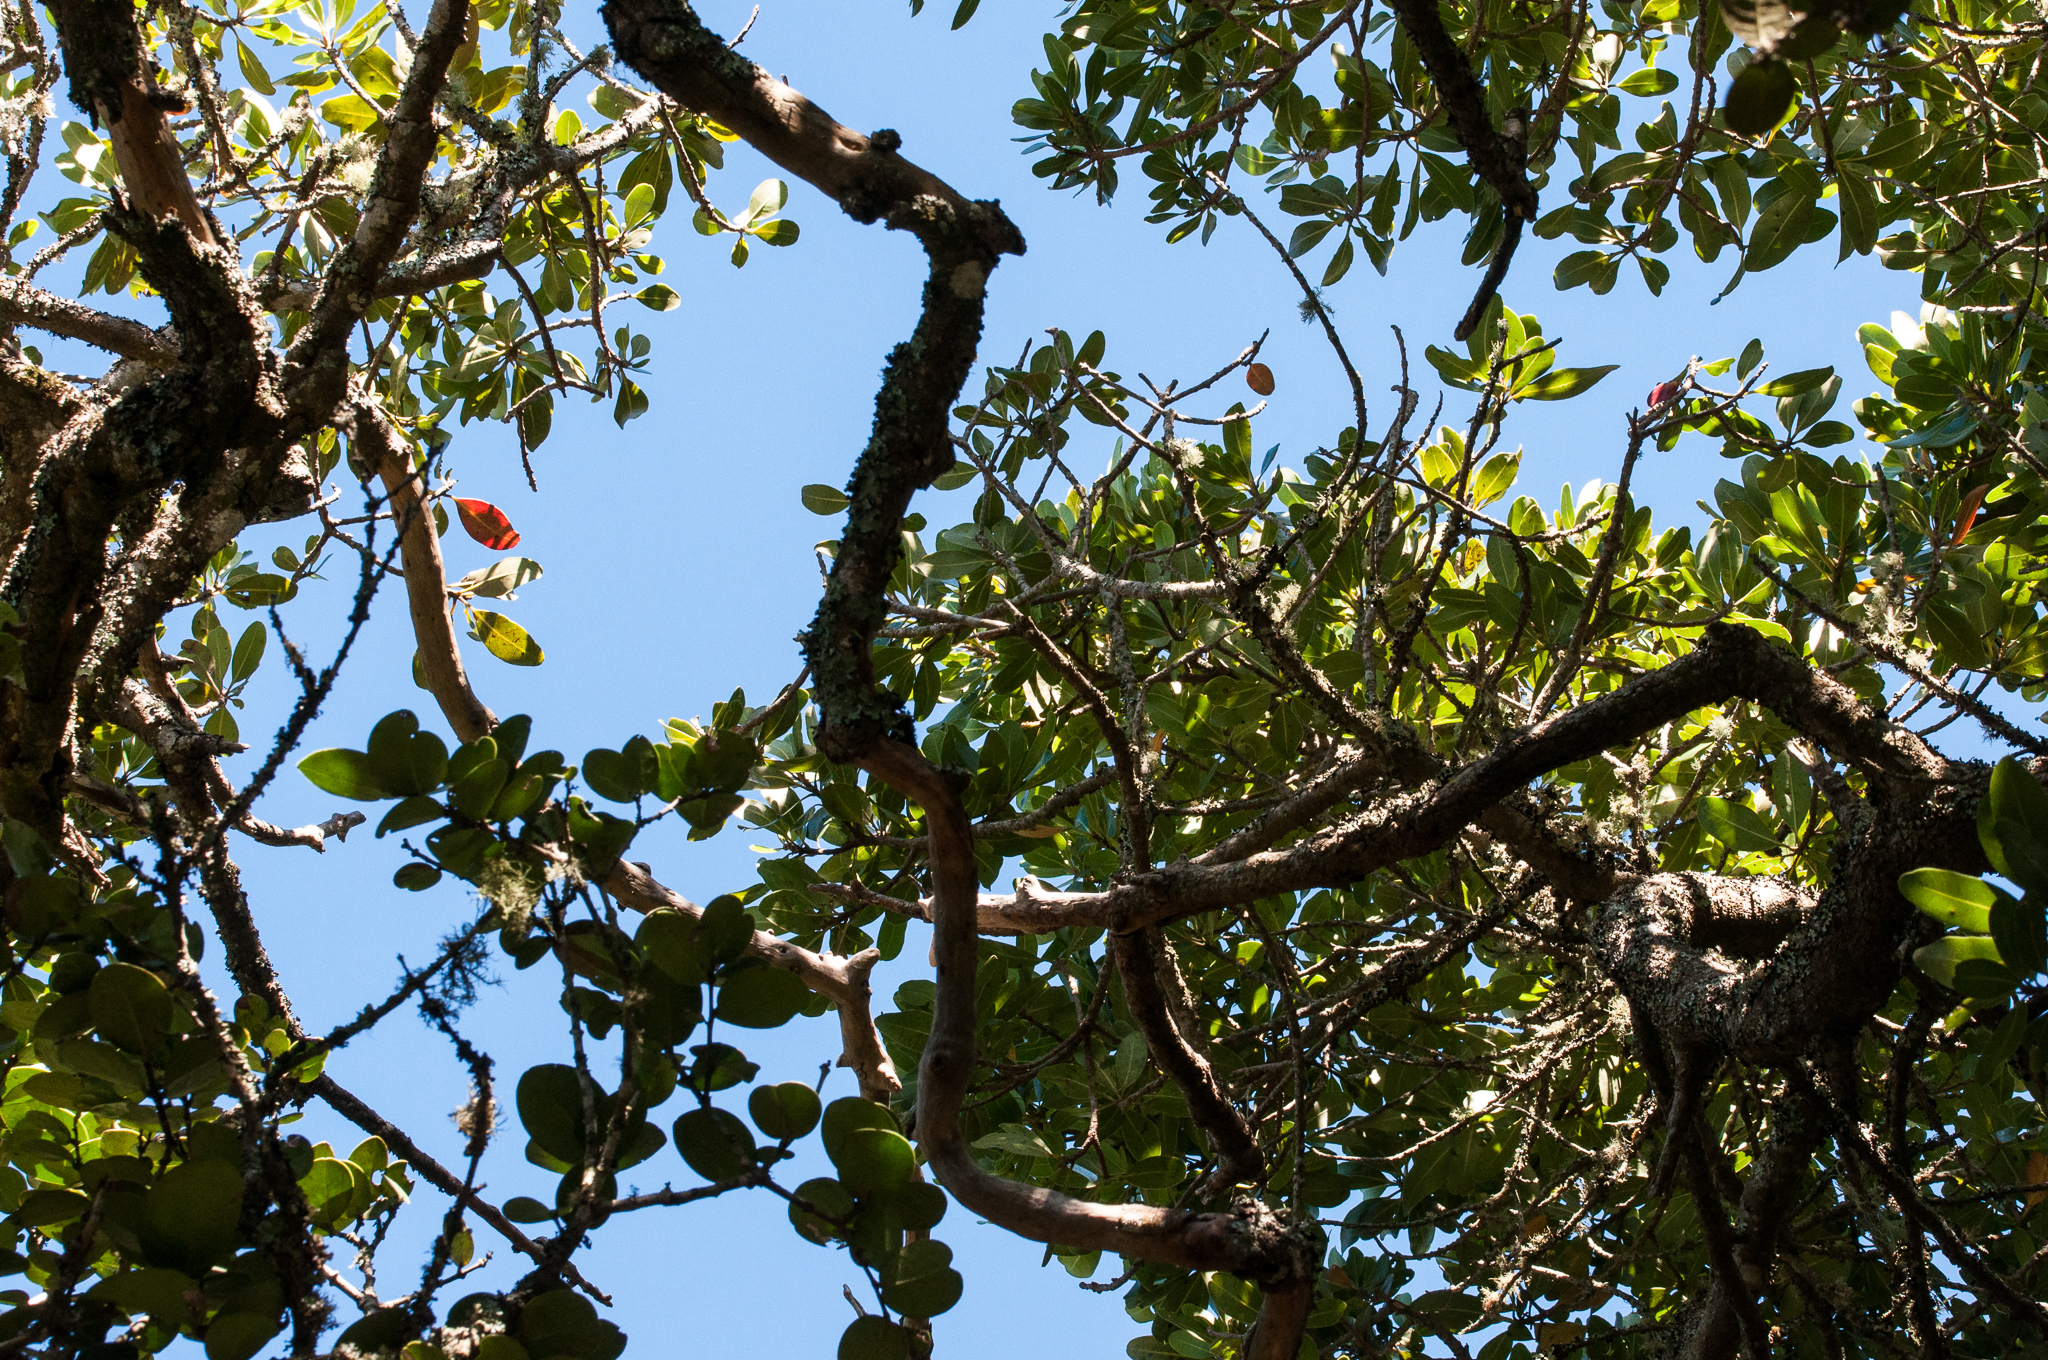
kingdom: Plantae
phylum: Tracheophyta
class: Magnoliopsida
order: Ericales
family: Sapotaceae
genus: Sideroxylon
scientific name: Sideroxylon inerme
